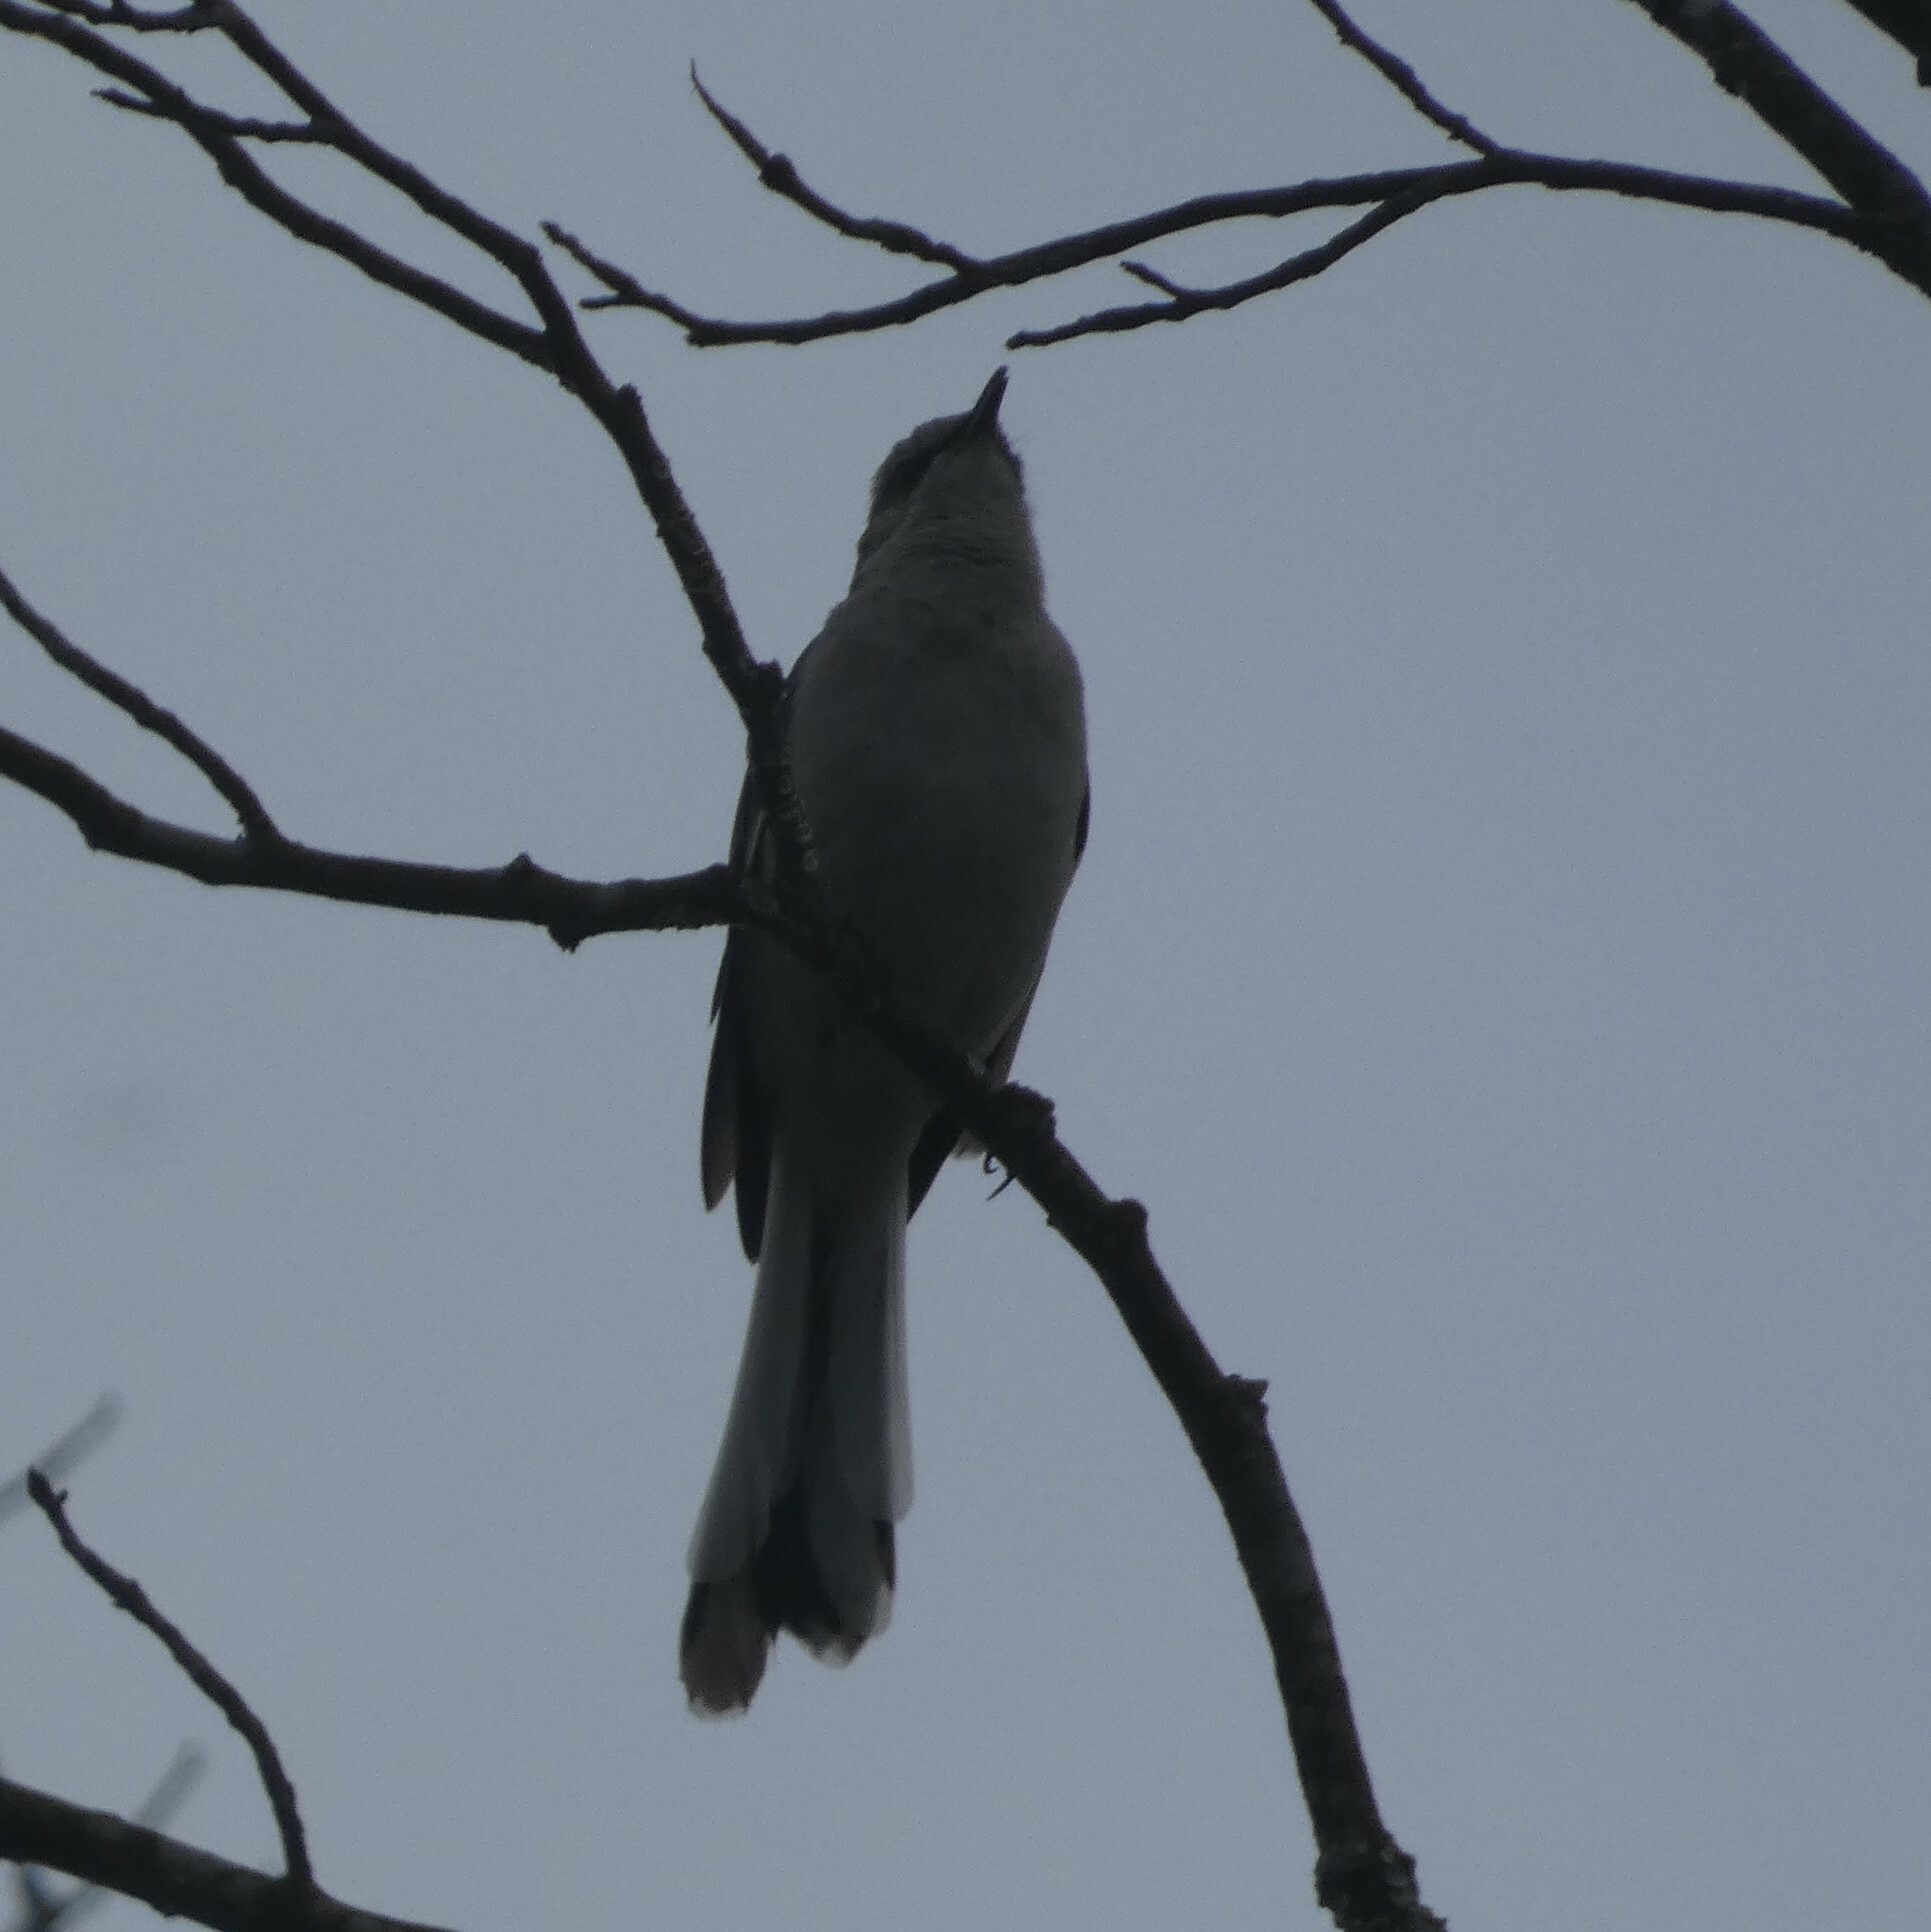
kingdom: Animalia
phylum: Chordata
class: Aves
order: Passeriformes
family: Mimidae
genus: Mimus
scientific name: Mimus polyglottos
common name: Northern mockingbird
